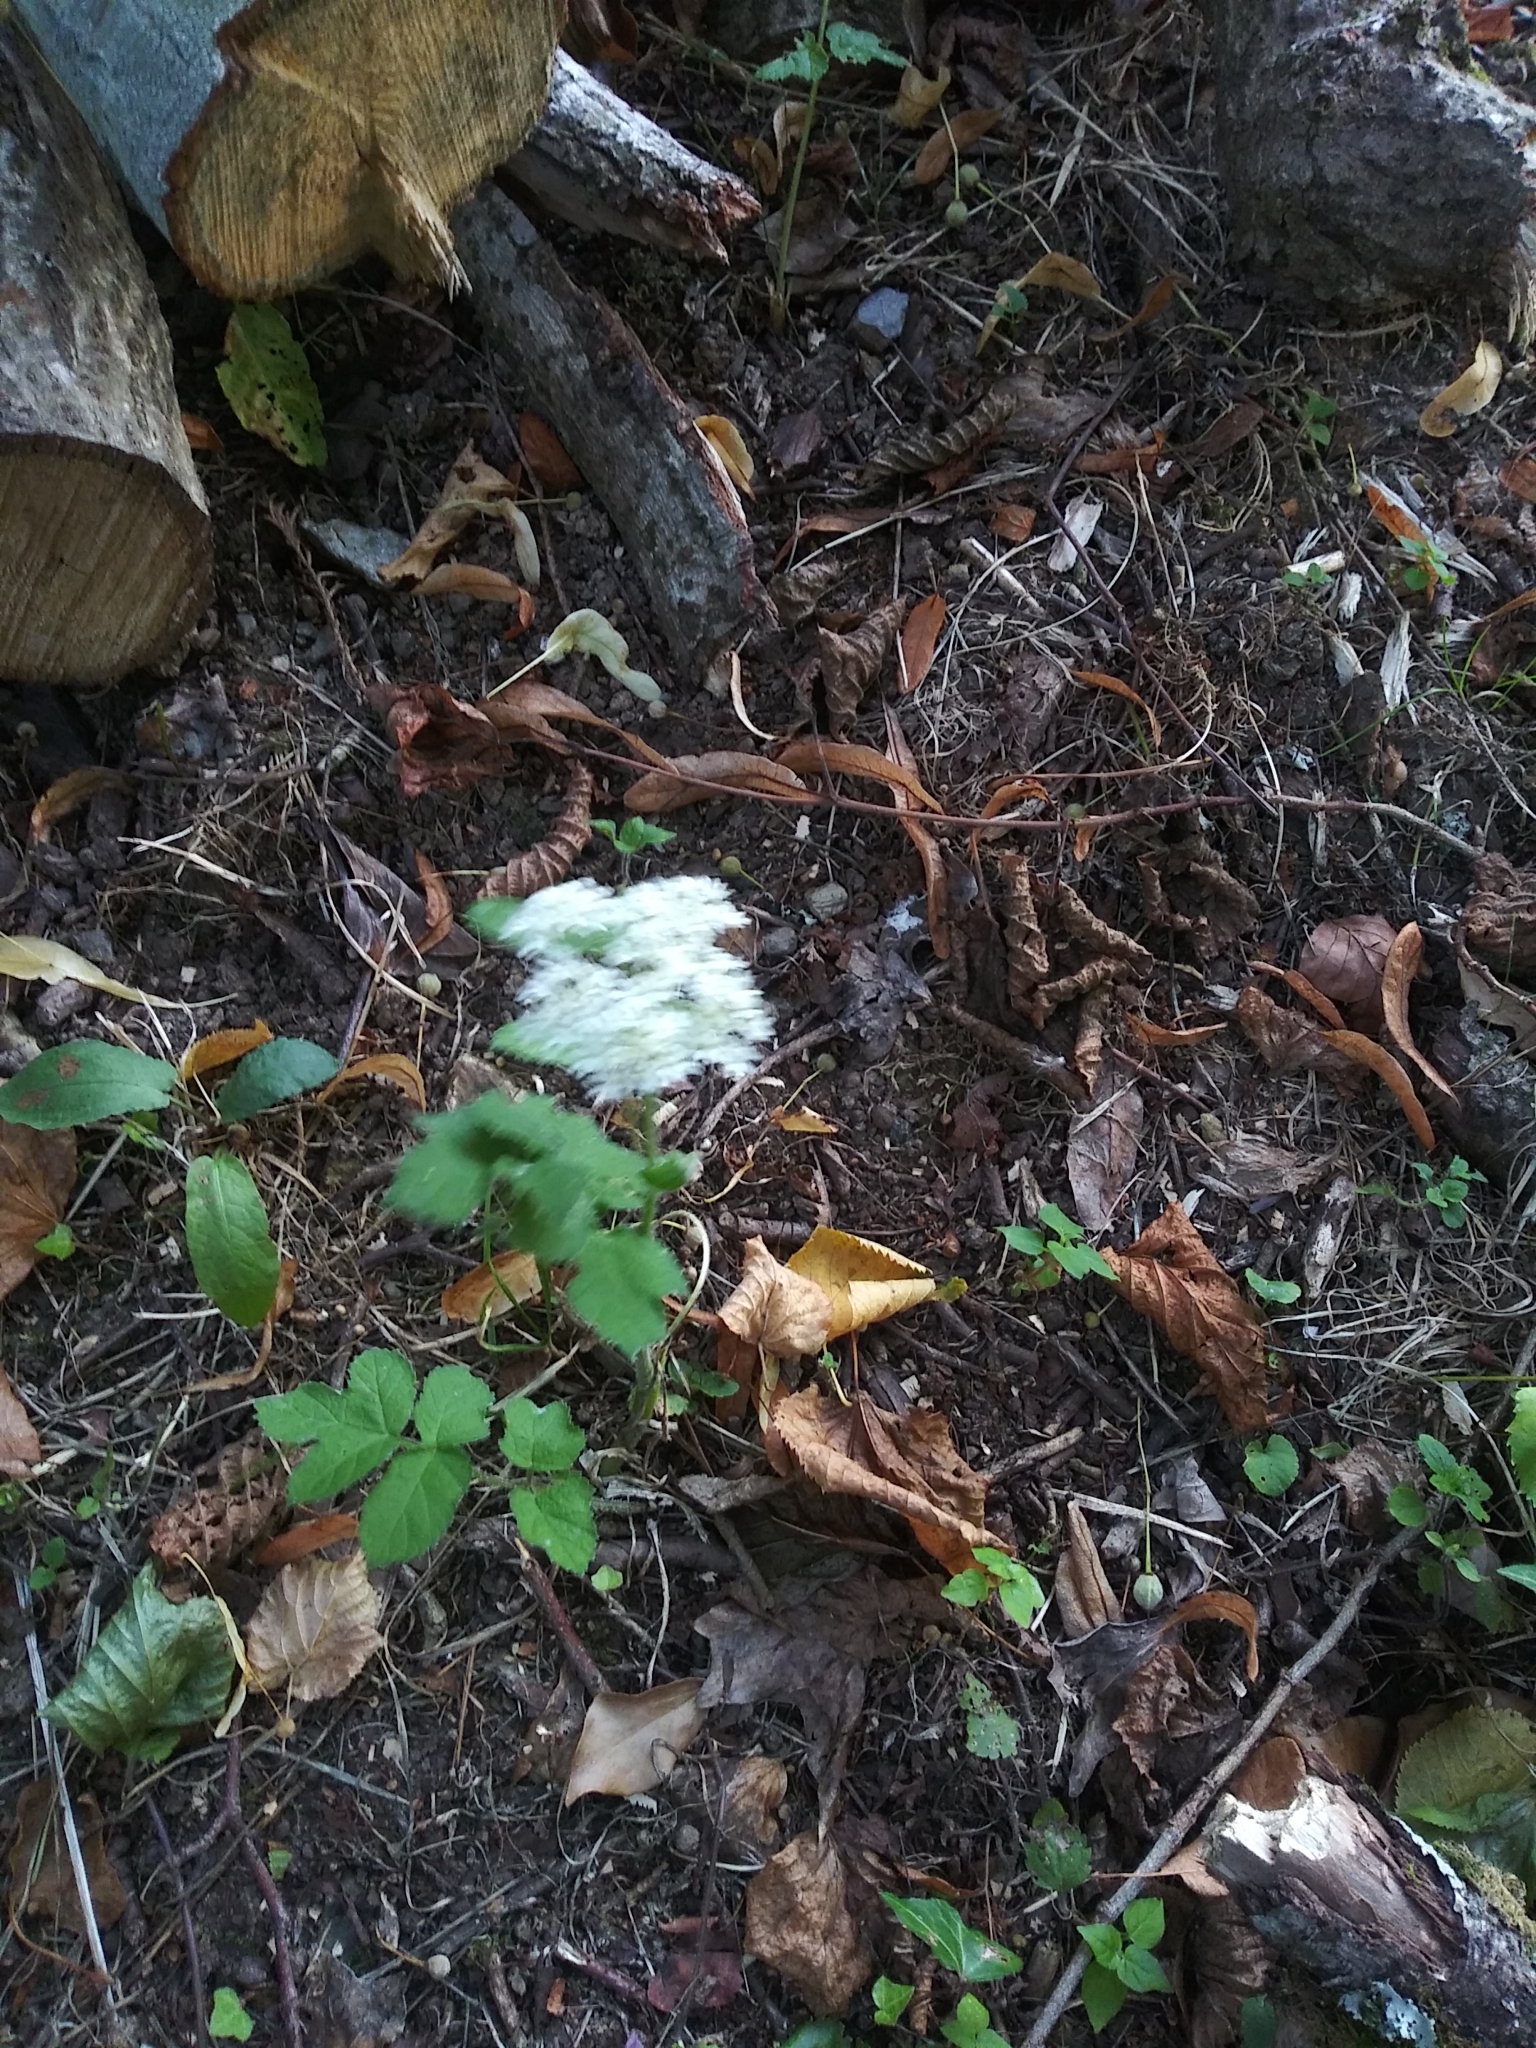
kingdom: Plantae
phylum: Tracheophyta
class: Magnoliopsida
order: Apiales
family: Apiaceae
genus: Heracleum
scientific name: Heracleum sphondylium
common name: Hogweed
